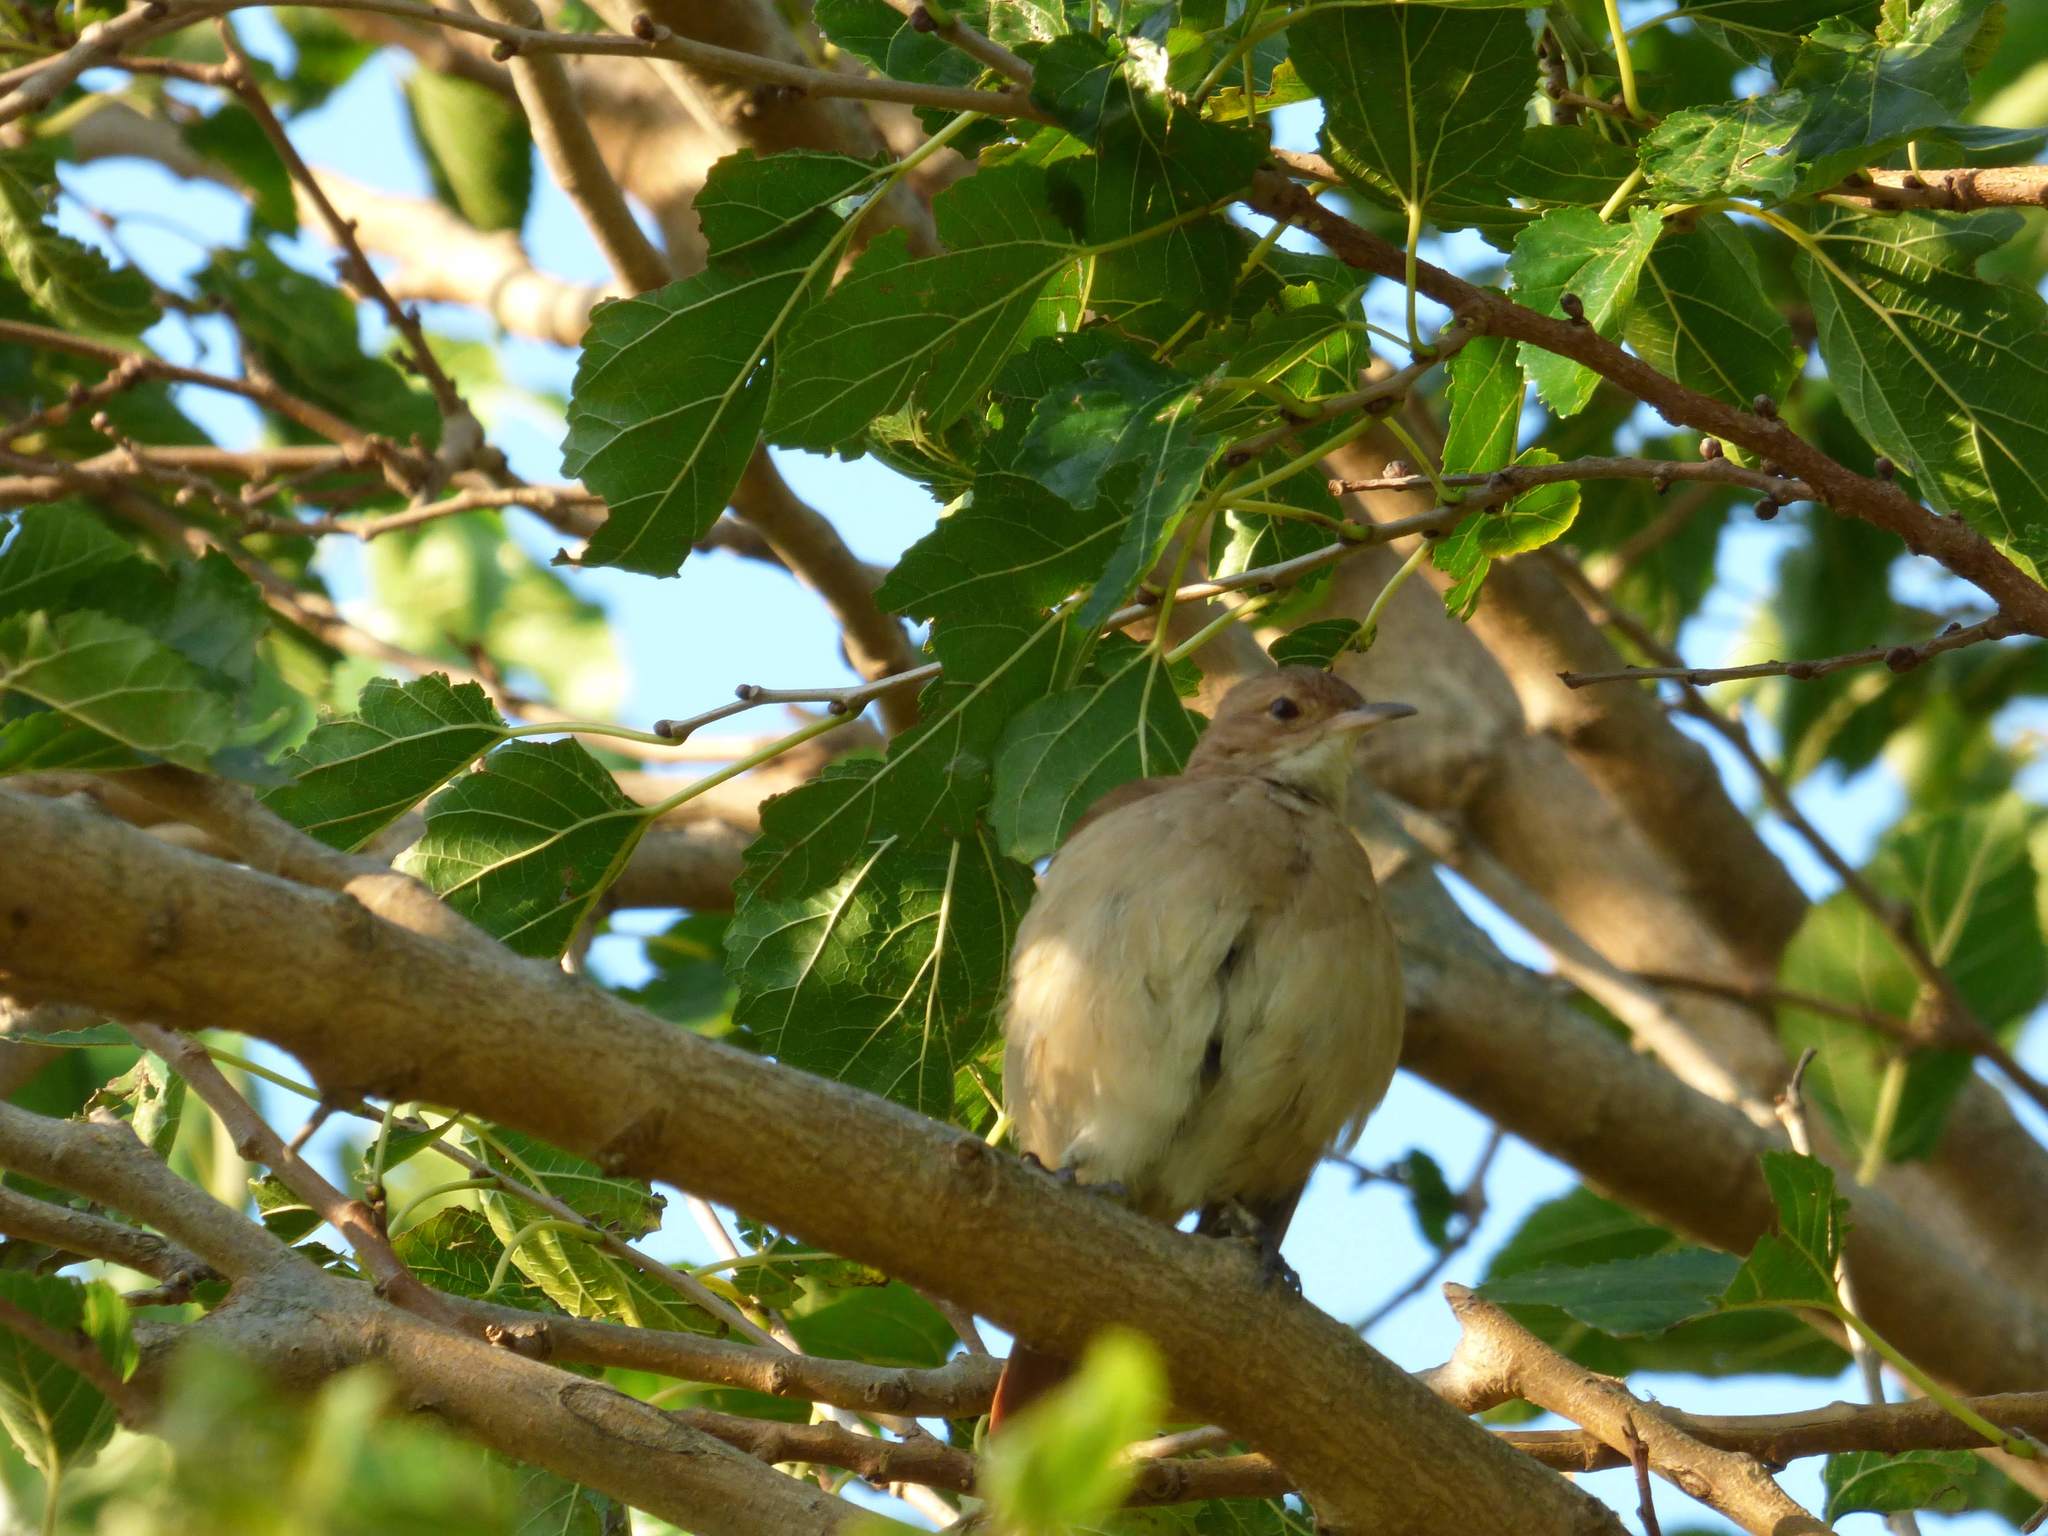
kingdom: Animalia
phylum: Chordata
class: Aves
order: Passeriformes
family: Furnariidae
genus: Furnarius
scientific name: Furnarius rufus
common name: Rufous hornero
